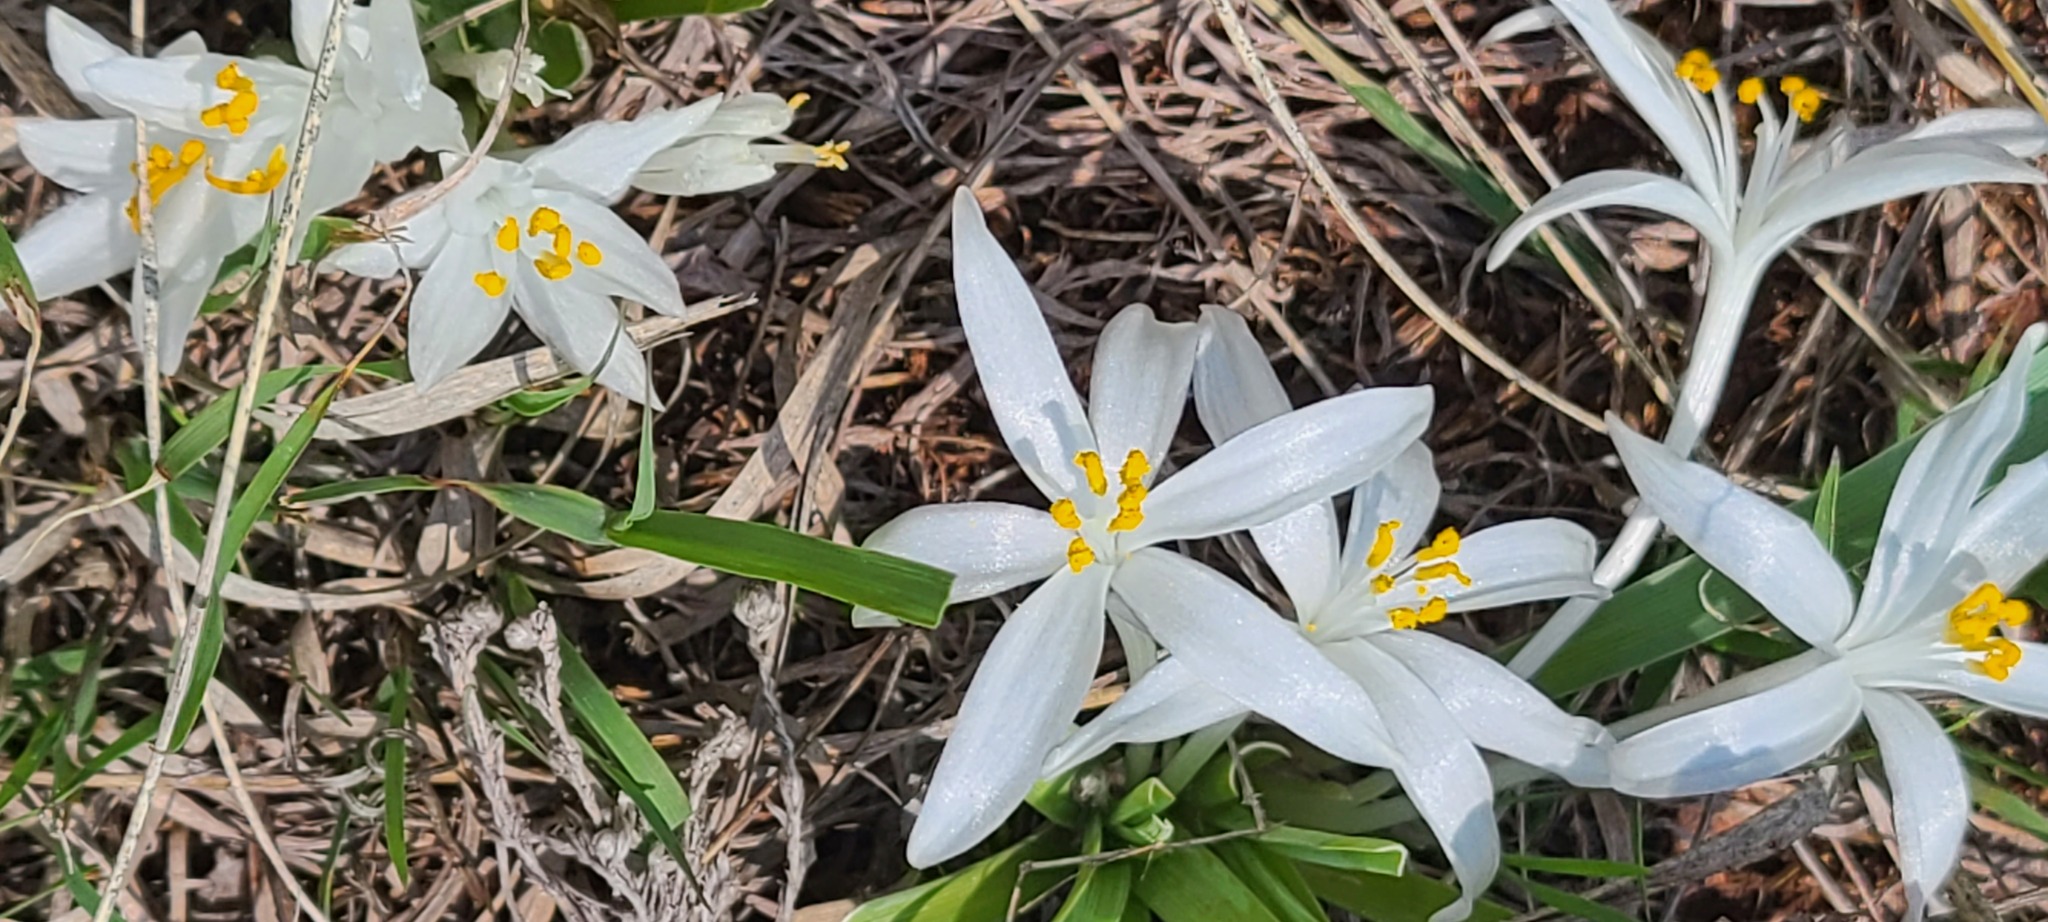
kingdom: Plantae
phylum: Tracheophyta
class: Liliopsida
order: Asparagales
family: Asparagaceae
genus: Leucocrinum
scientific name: Leucocrinum montanum
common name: Mountain-lily
